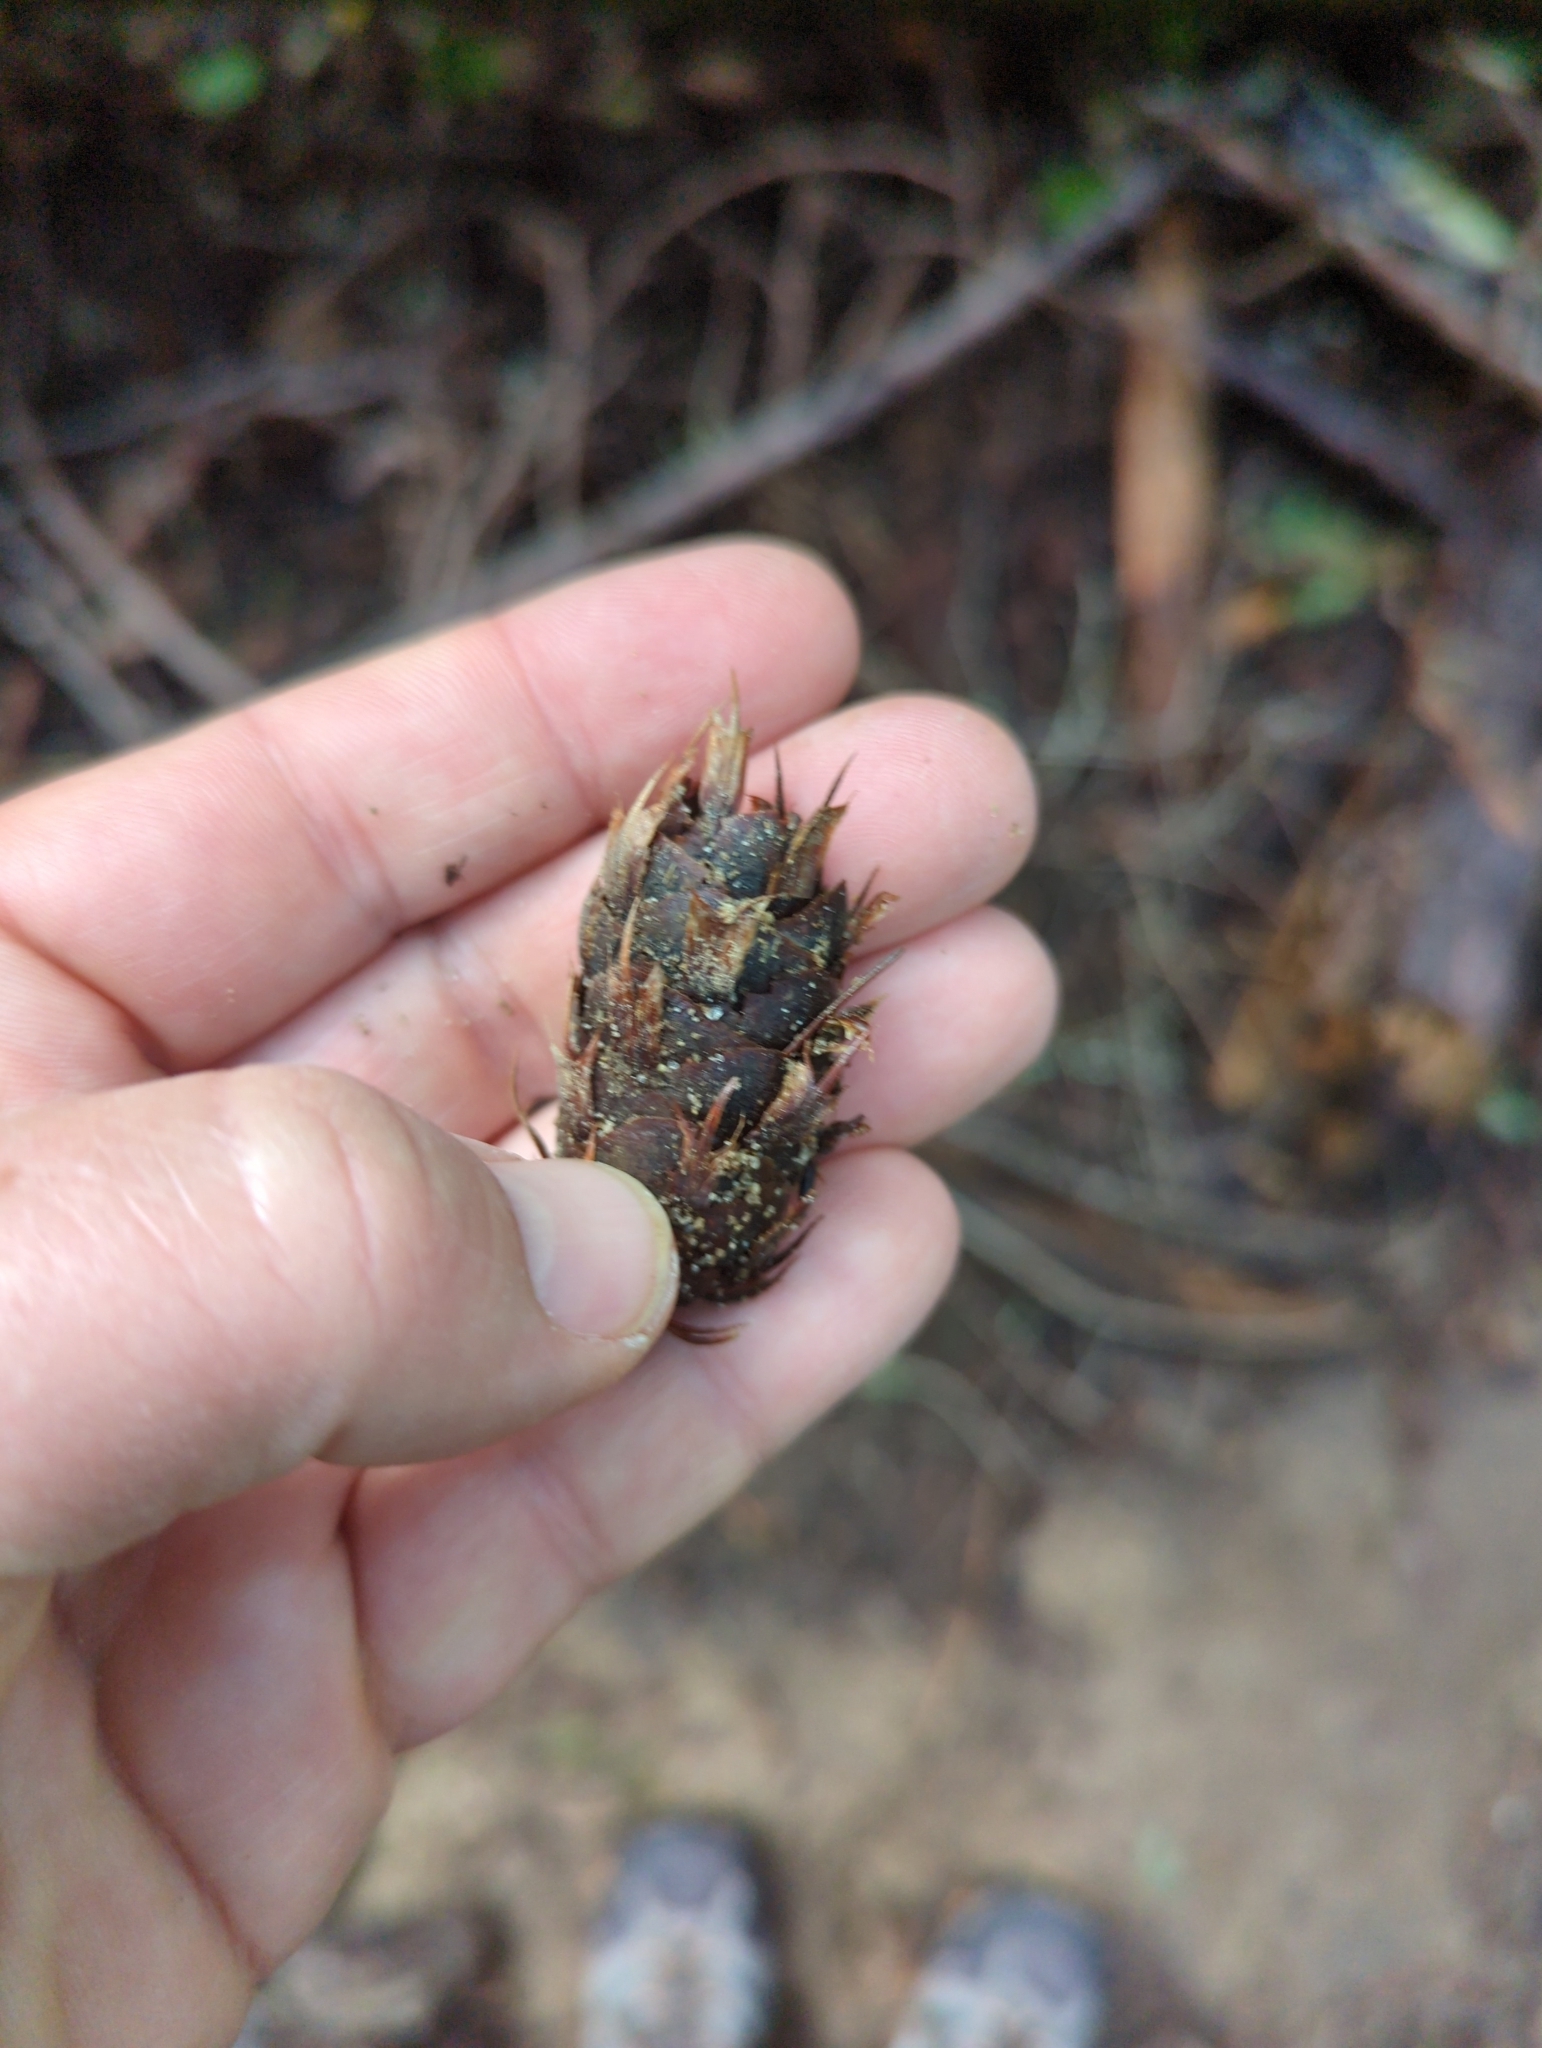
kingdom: Plantae
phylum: Tracheophyta
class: Pinopsida
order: Pinales
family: Pinaceae
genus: Pseudotsuga
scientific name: Pseudotsuga menziesii
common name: Douglas fir
